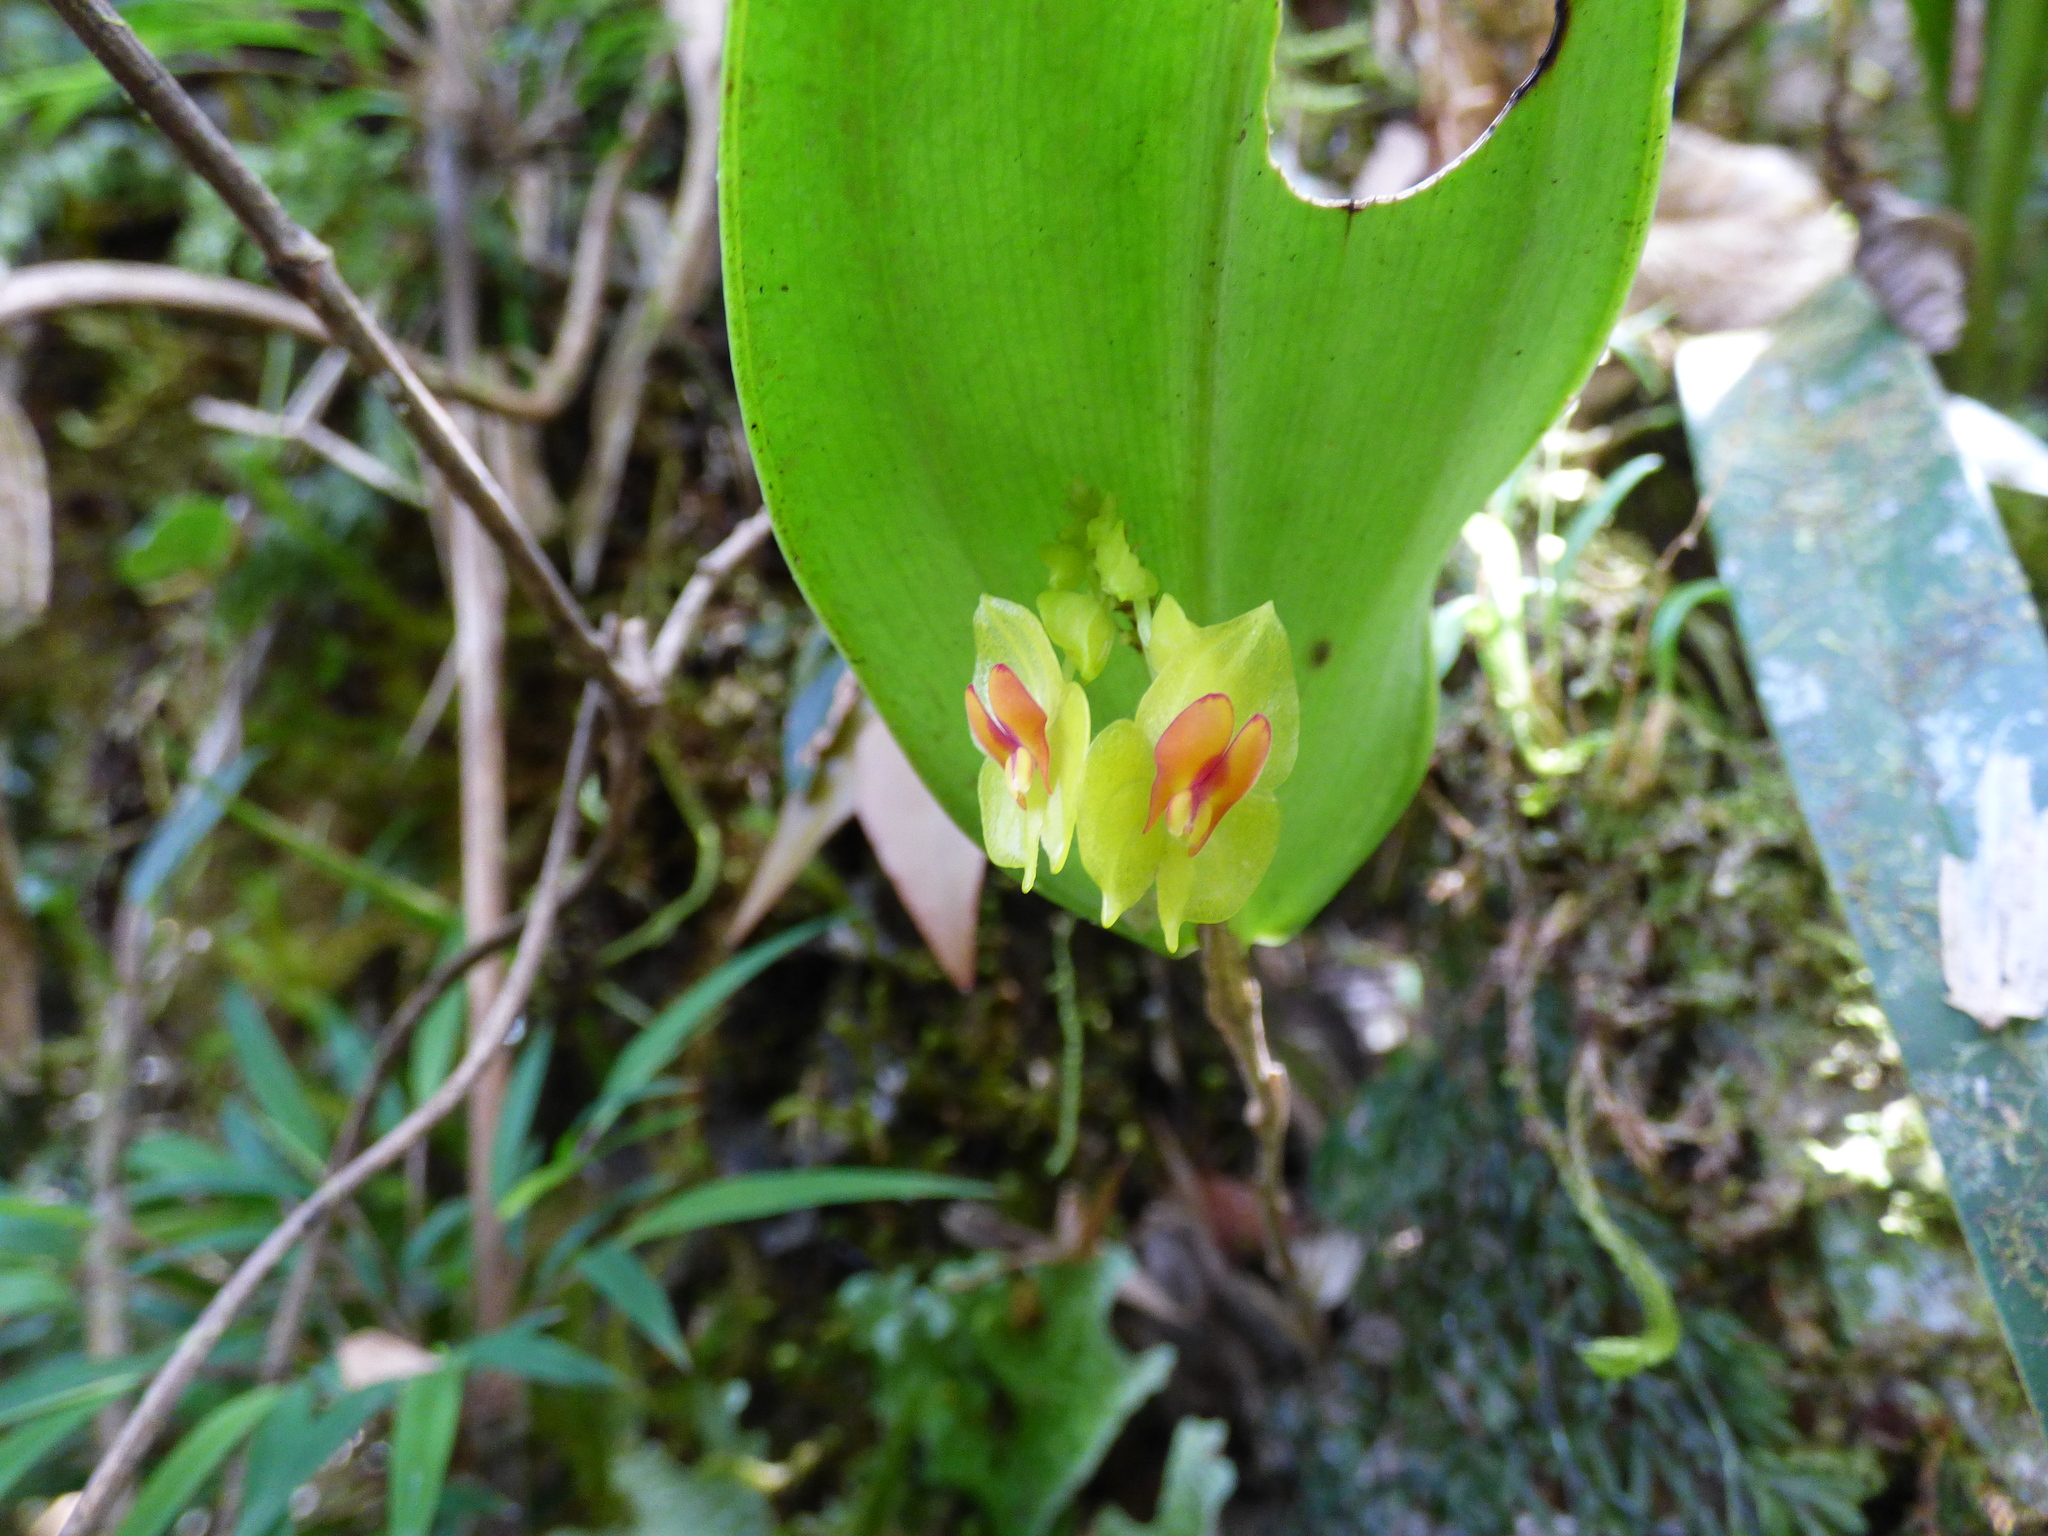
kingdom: Plantae
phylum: Tracheophyta
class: Liliopsida
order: Asparagales
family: Orchidaceae
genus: Lepanthes
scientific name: Lepanthes gargantua
